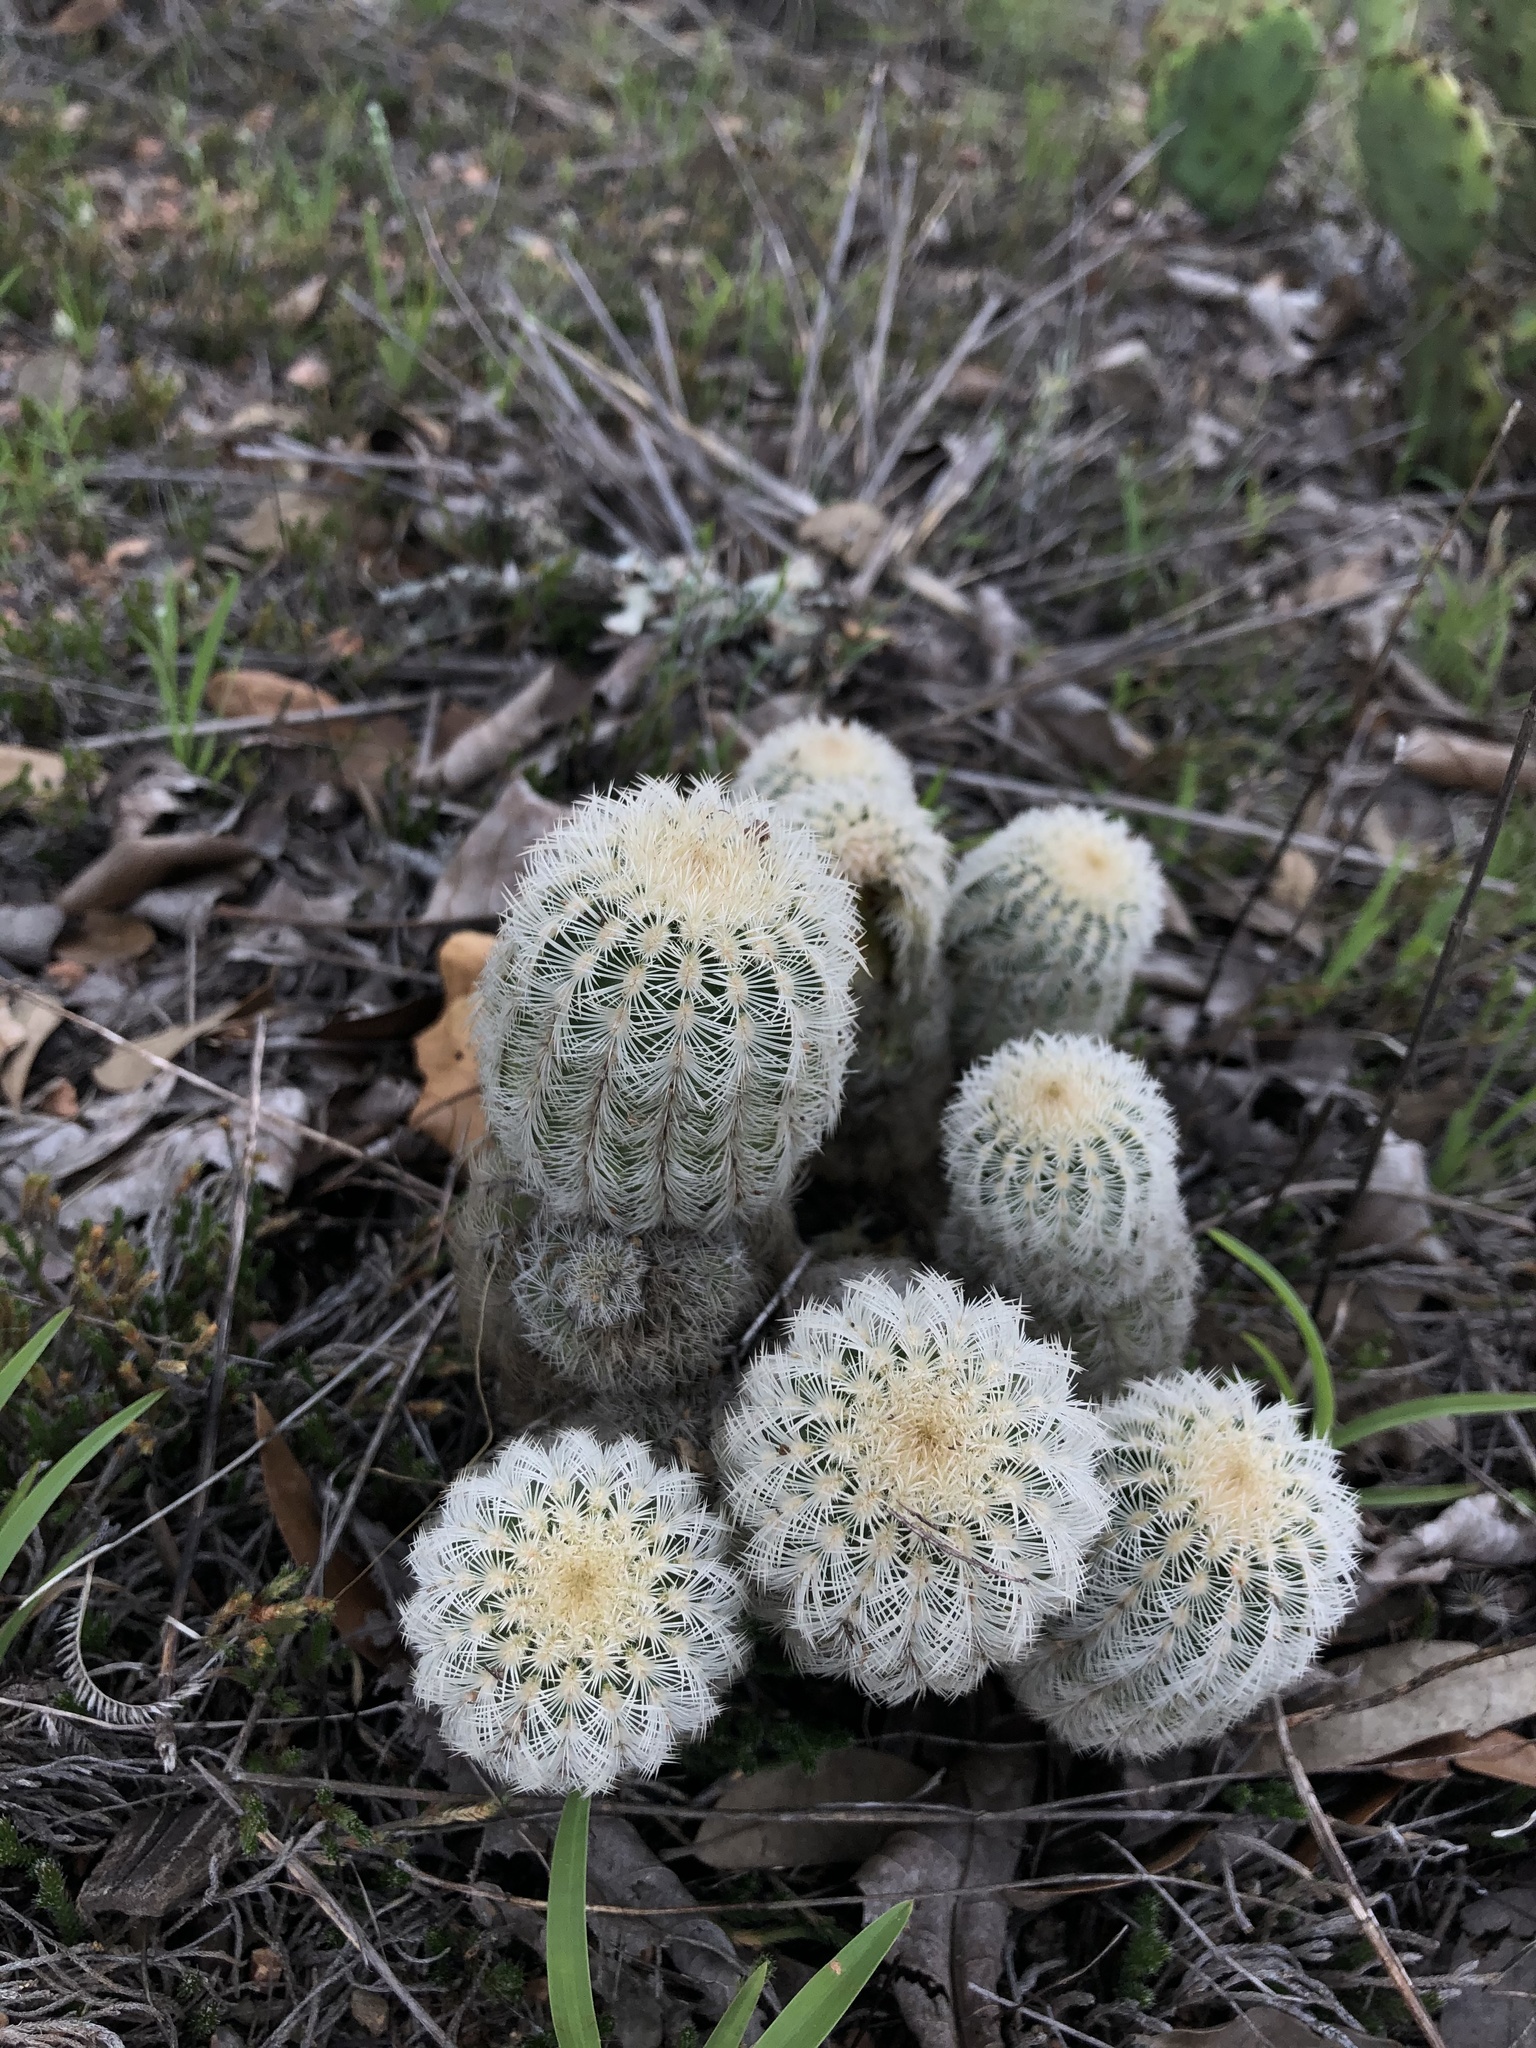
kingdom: Plantae
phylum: Tracheophyta
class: Magnoliopsida
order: Caryophyllales
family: Cactaceae
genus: Echinocereus
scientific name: Echinocereus reichenbachii
